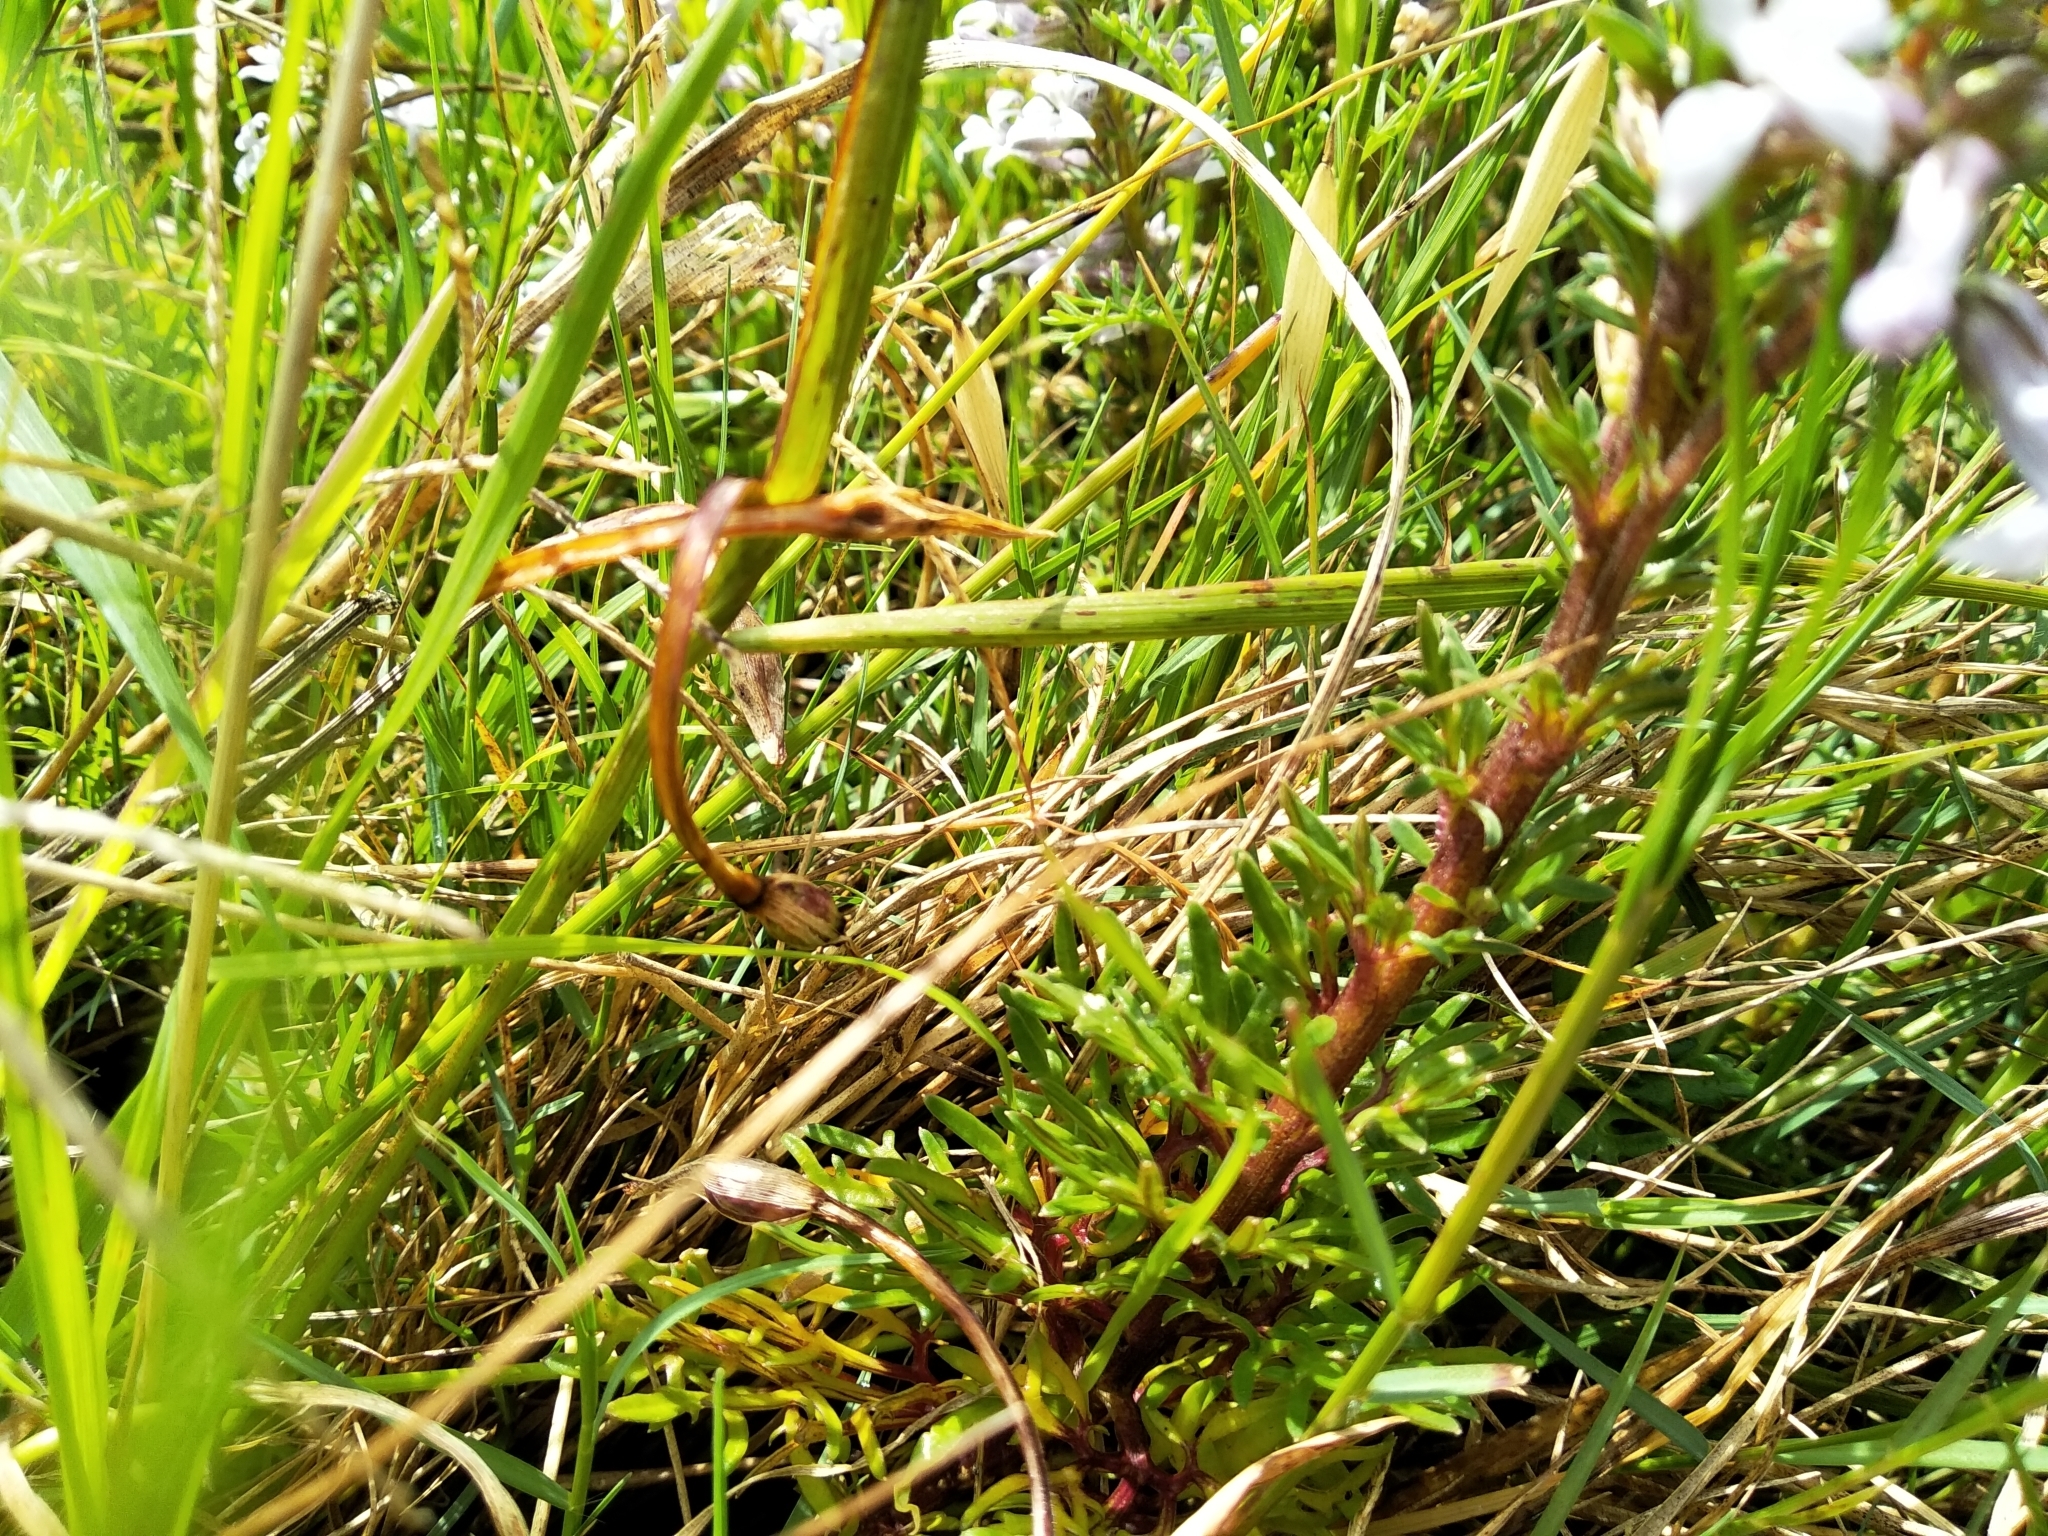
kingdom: Plantae
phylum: Tracheophyta
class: Magnoliopsida
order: Asterales
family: Campanulaceae
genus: Cyphia
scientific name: Cyphia bulbosa
